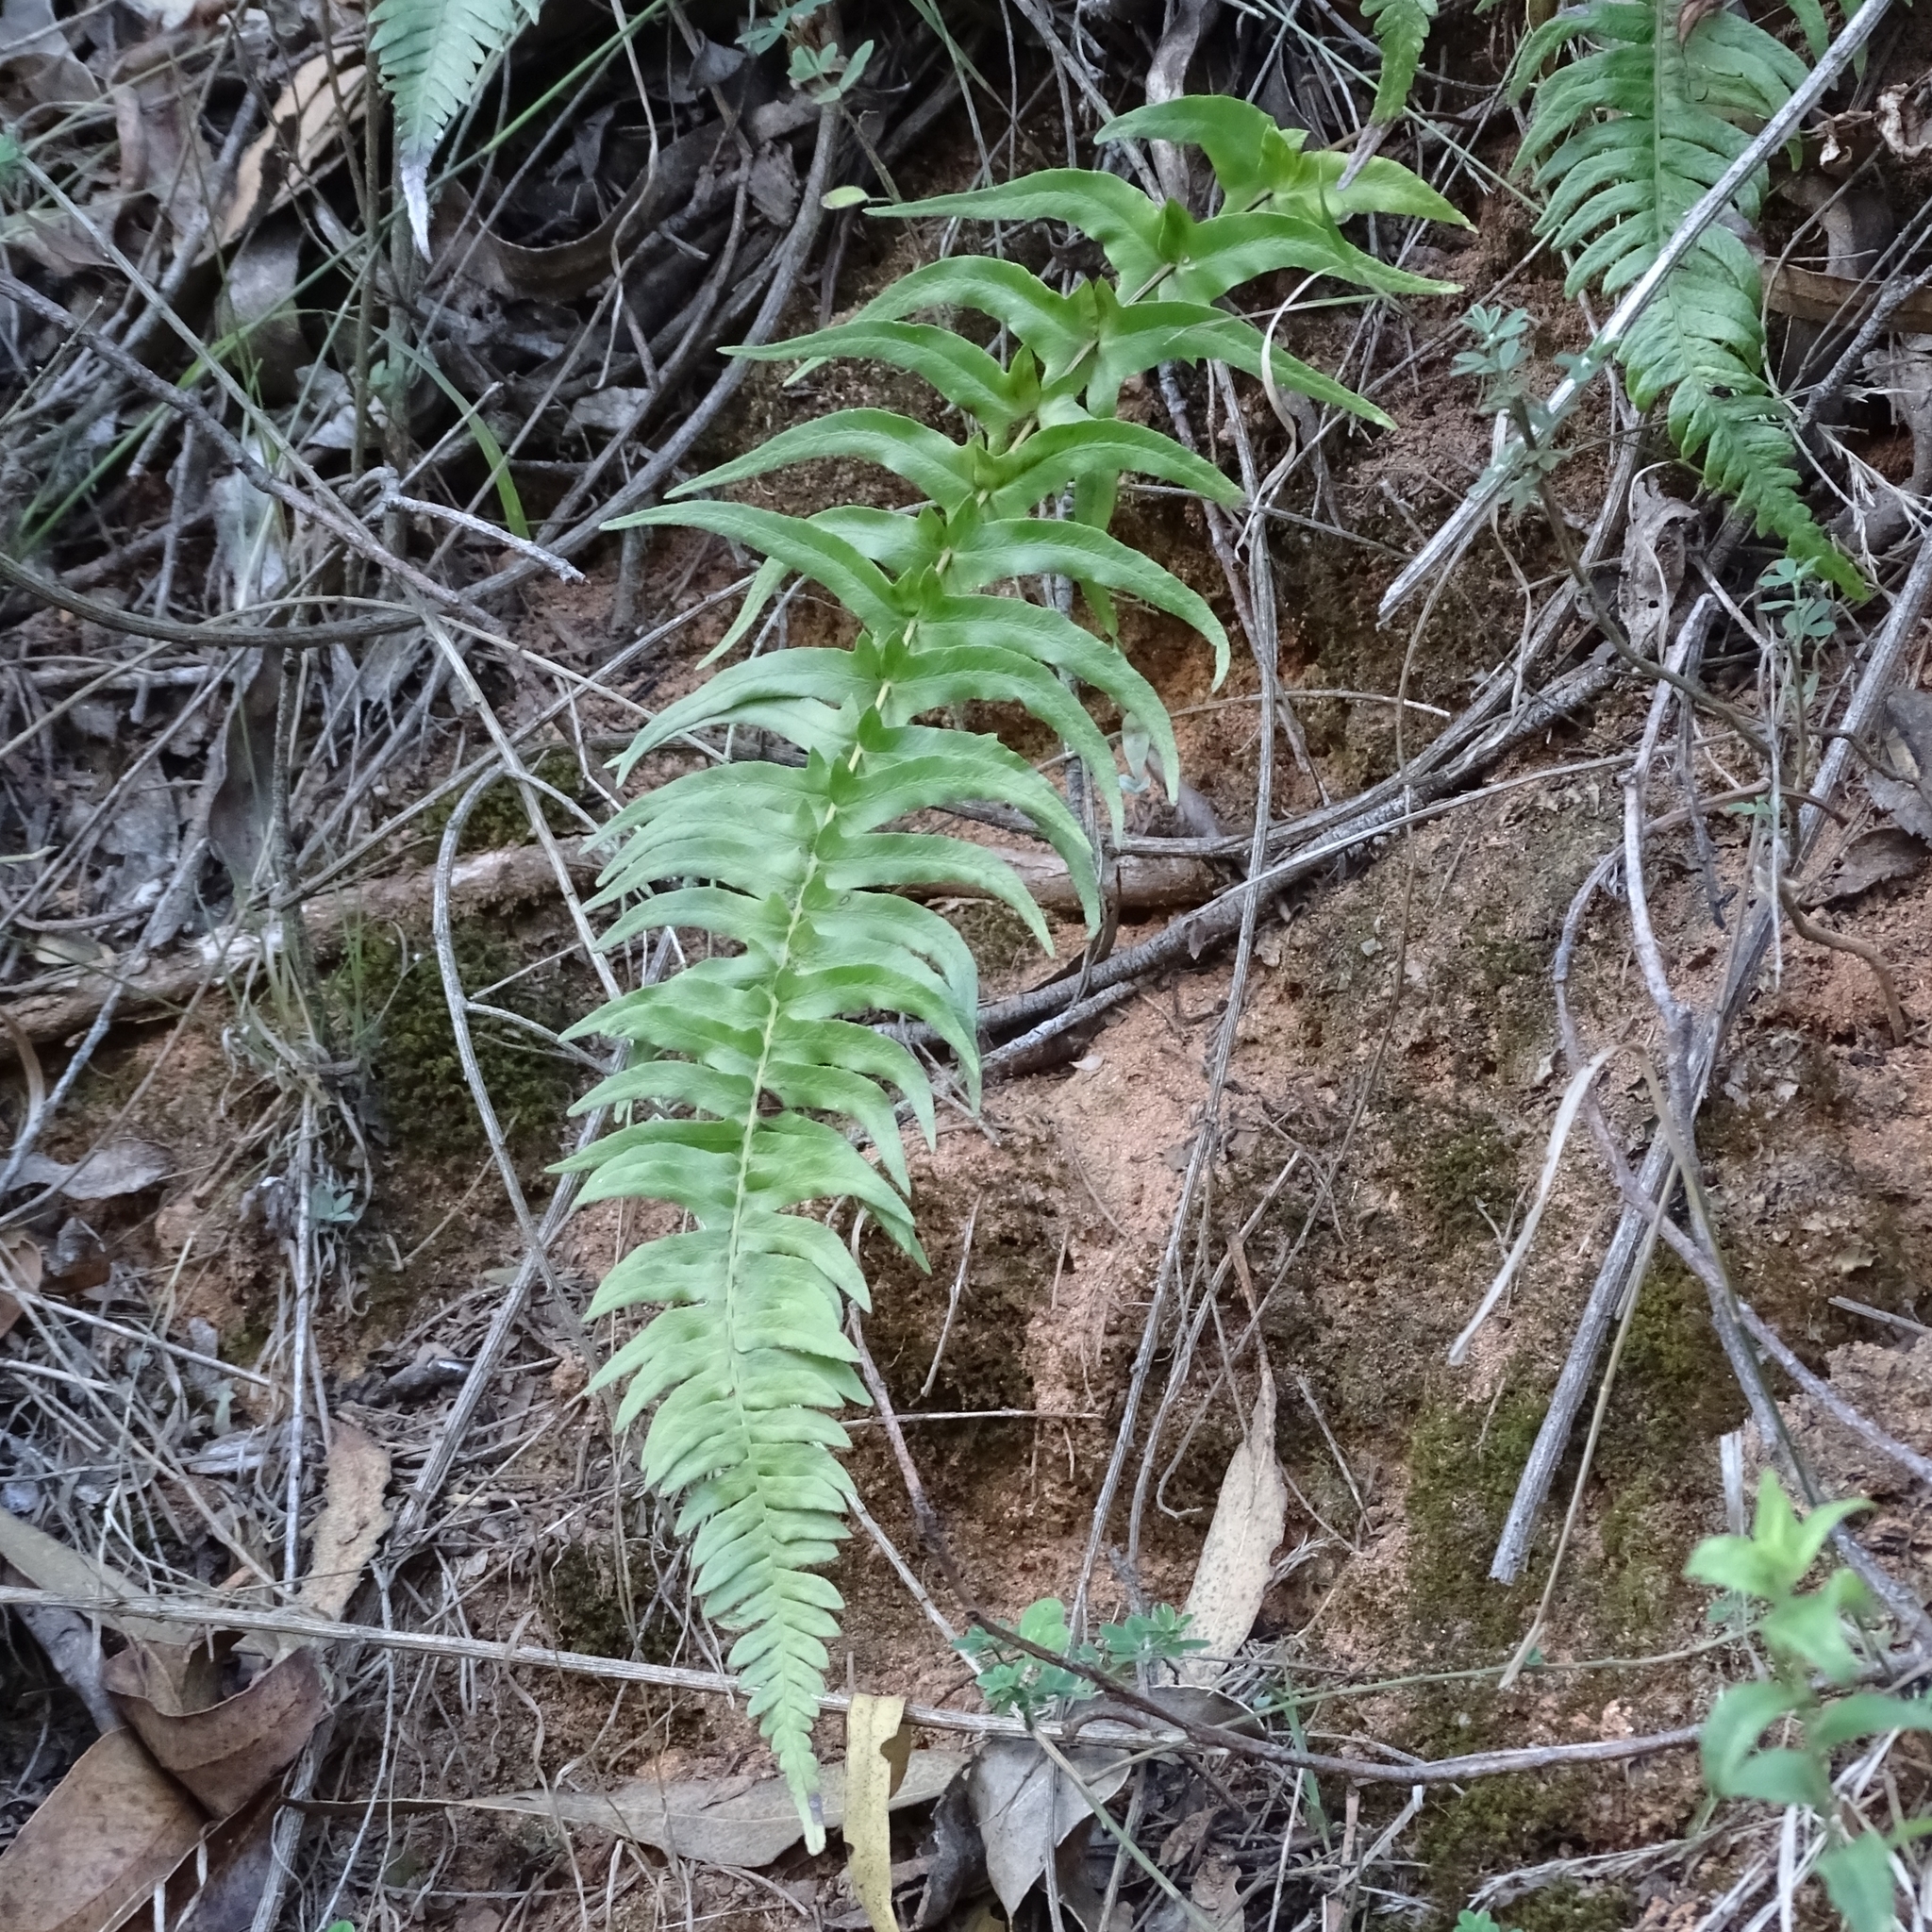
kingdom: Plantae
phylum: Tracheophyta
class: Polypodiopsida
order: Polypodiales
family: Blechnaceae
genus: Lomariocycas
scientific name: Lomariocycas magellanica
